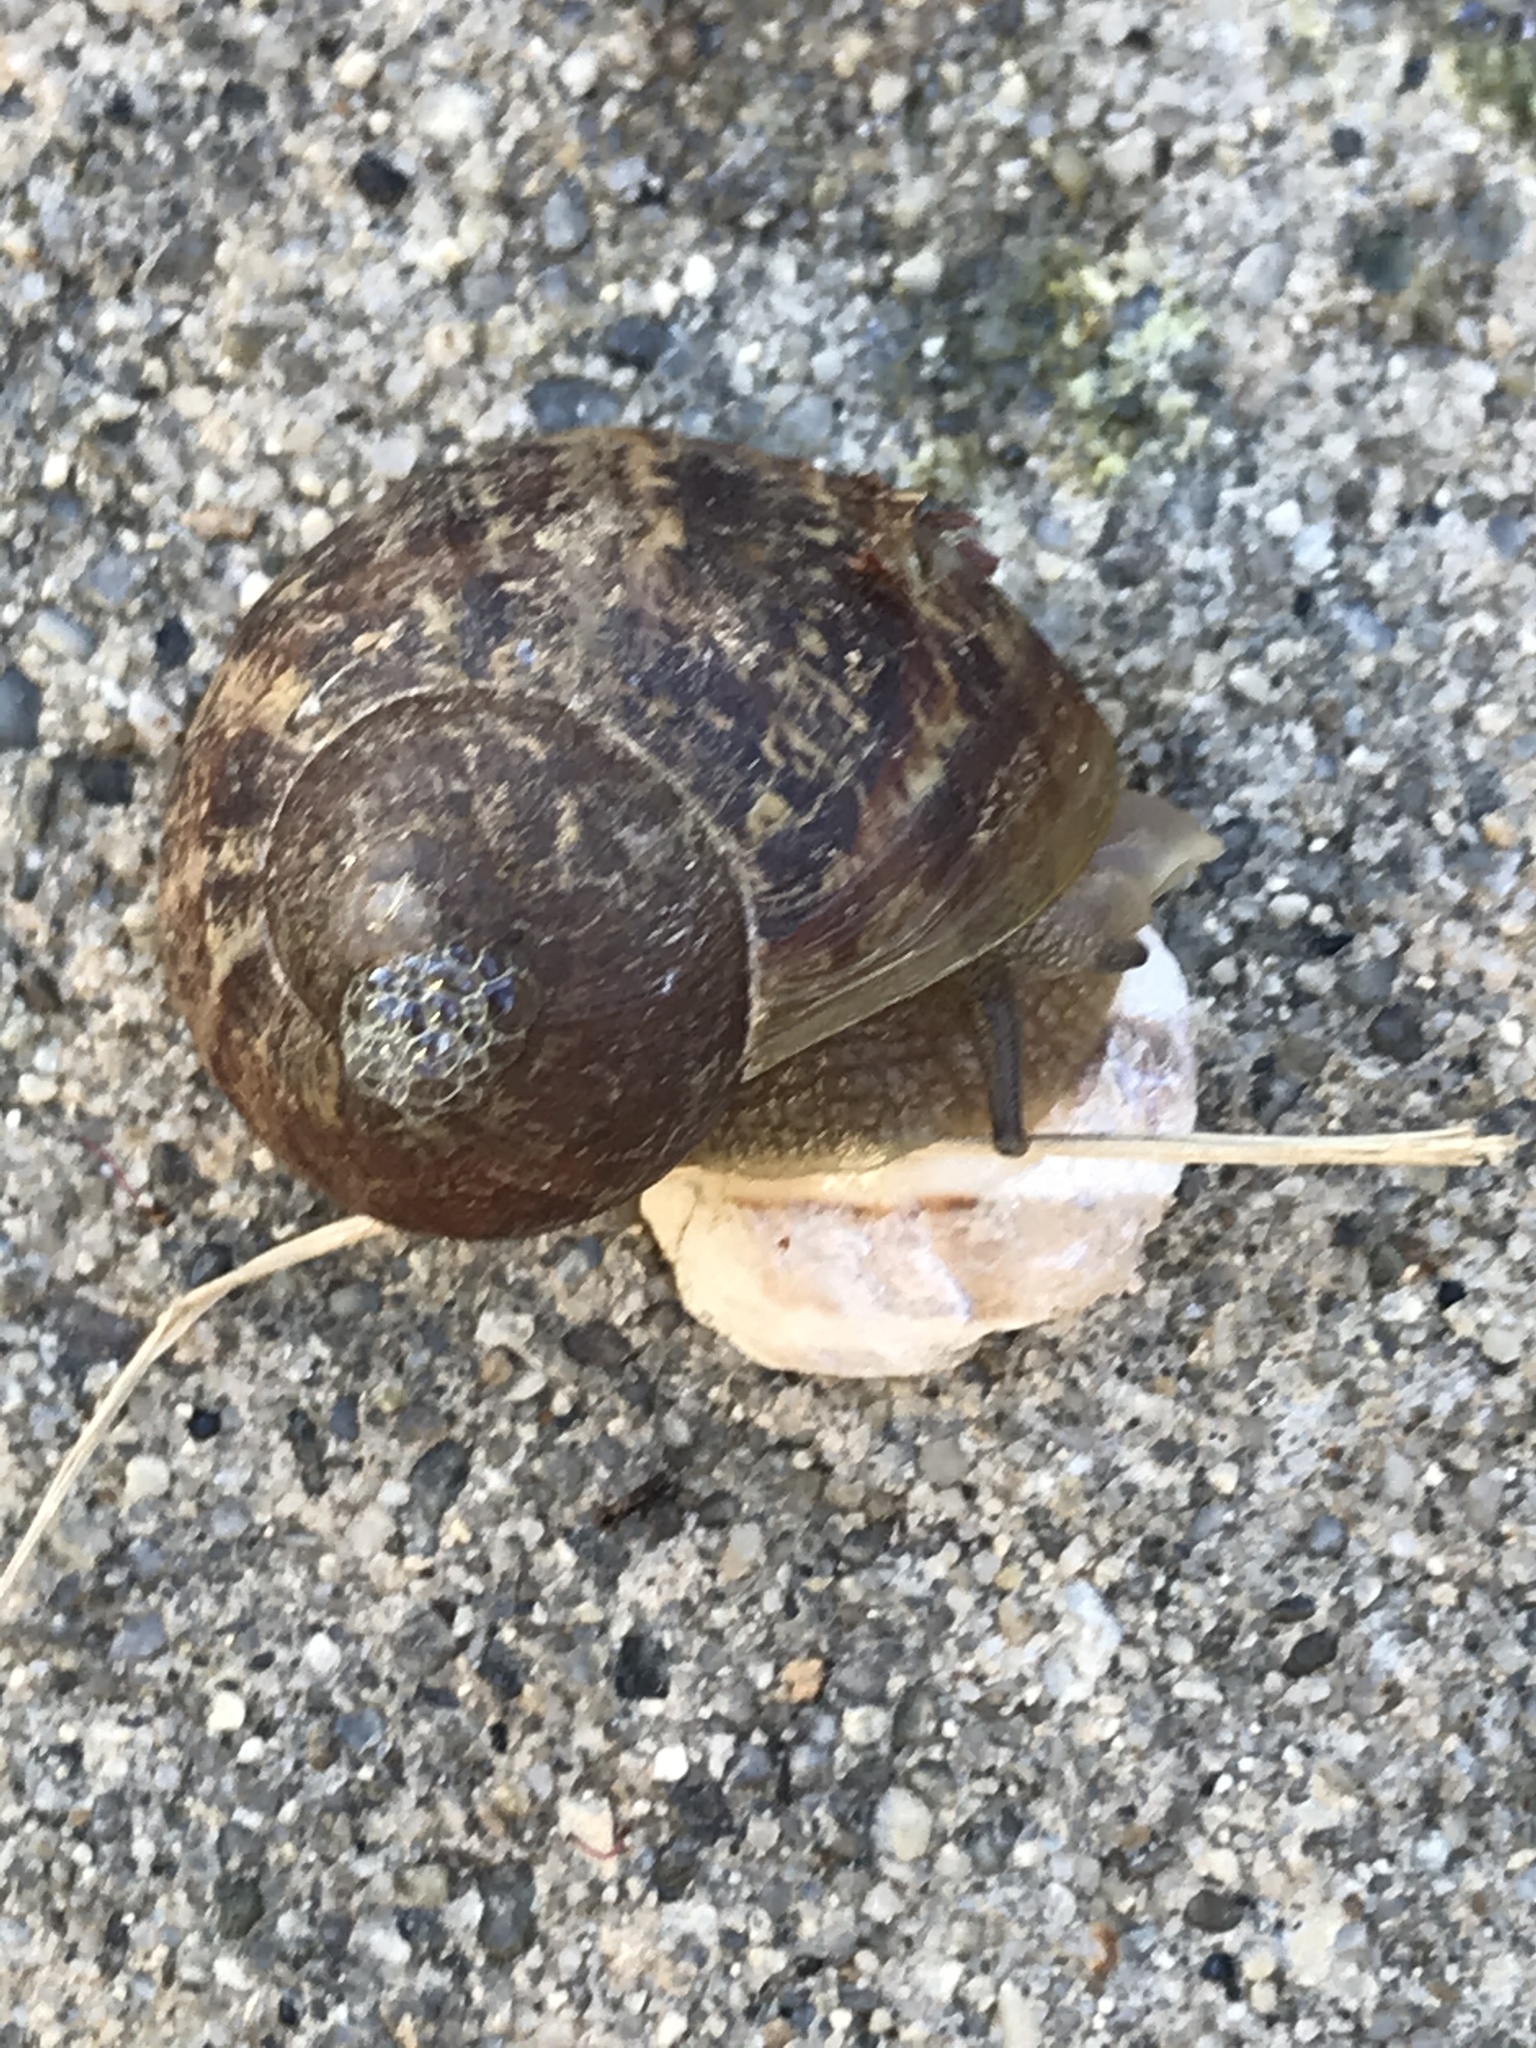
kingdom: Animalia
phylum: Mollusca
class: Gastropoda
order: Stylommatophora
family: Helicidae
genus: Cornu
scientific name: Cornu aspersum
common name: Brown garden snail
